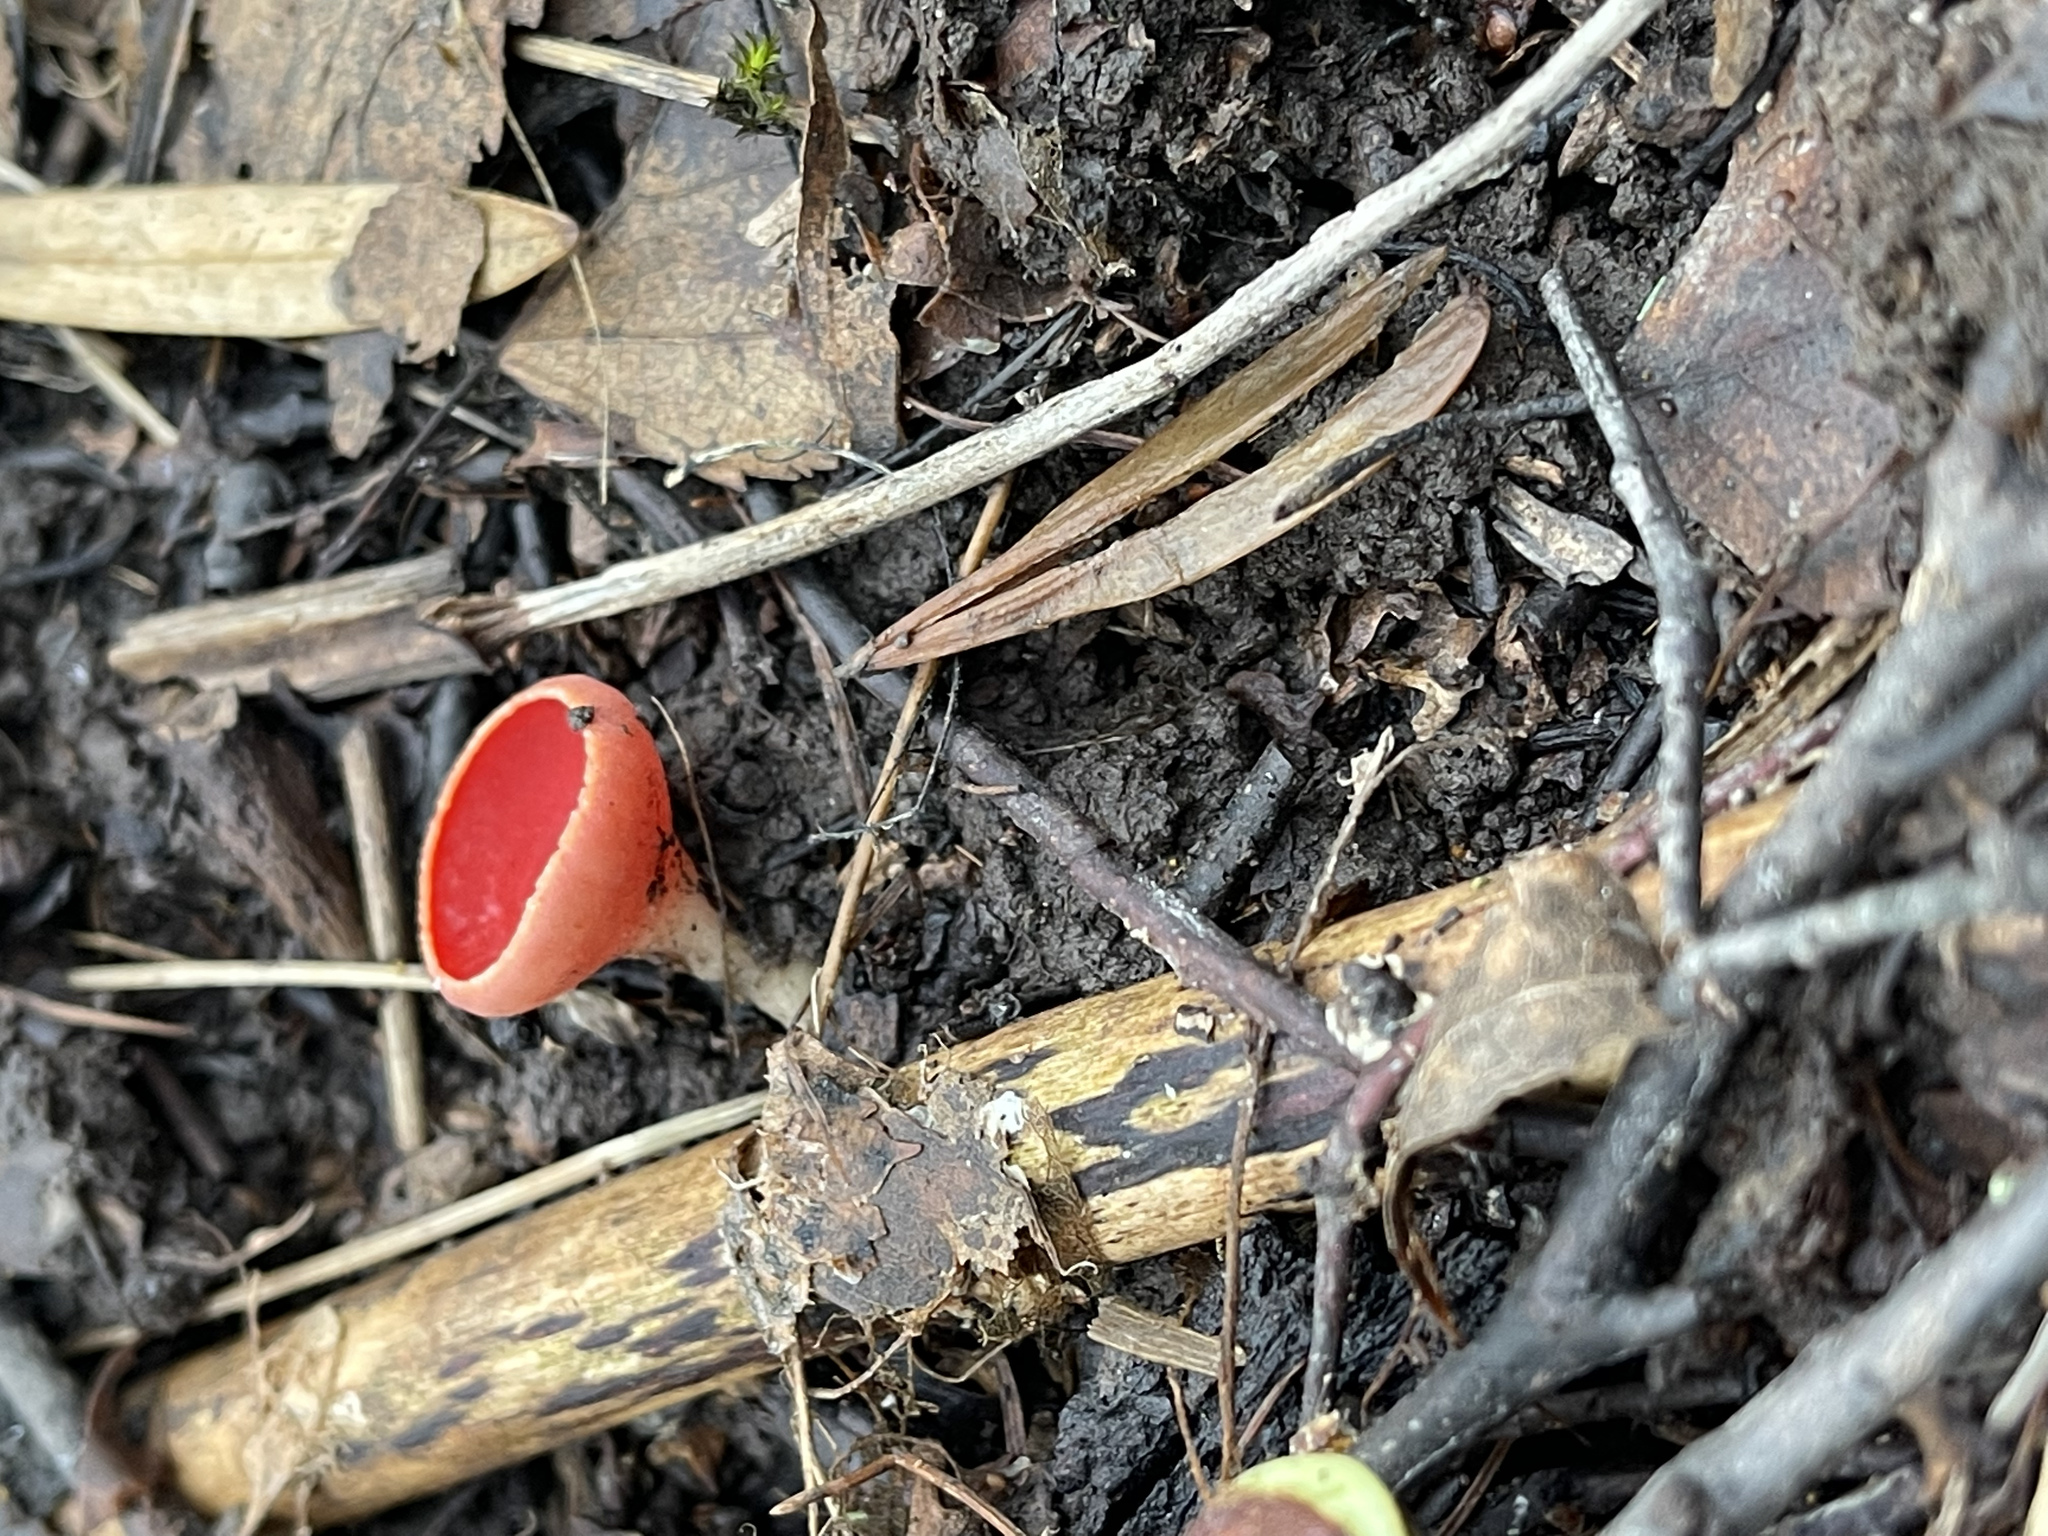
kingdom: Fungi
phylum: Ascomycota
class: Pezizomycetes
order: Pezizales
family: Sarcoscyphaceae
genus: Sarcoscypha
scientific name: Sarcoscypha austriaca
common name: Scarlet elfcup
